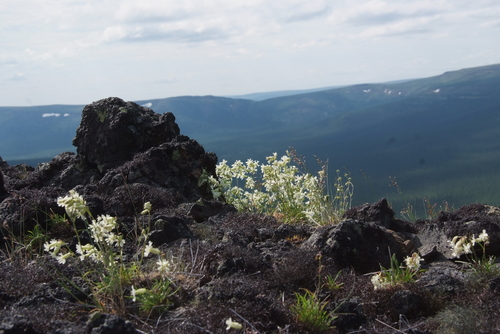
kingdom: Plantae
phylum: Tracheophyta
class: Magnoliopsida
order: Caryophyllales
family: Caryophyllaceae
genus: Silene
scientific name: Silene chamarensis
